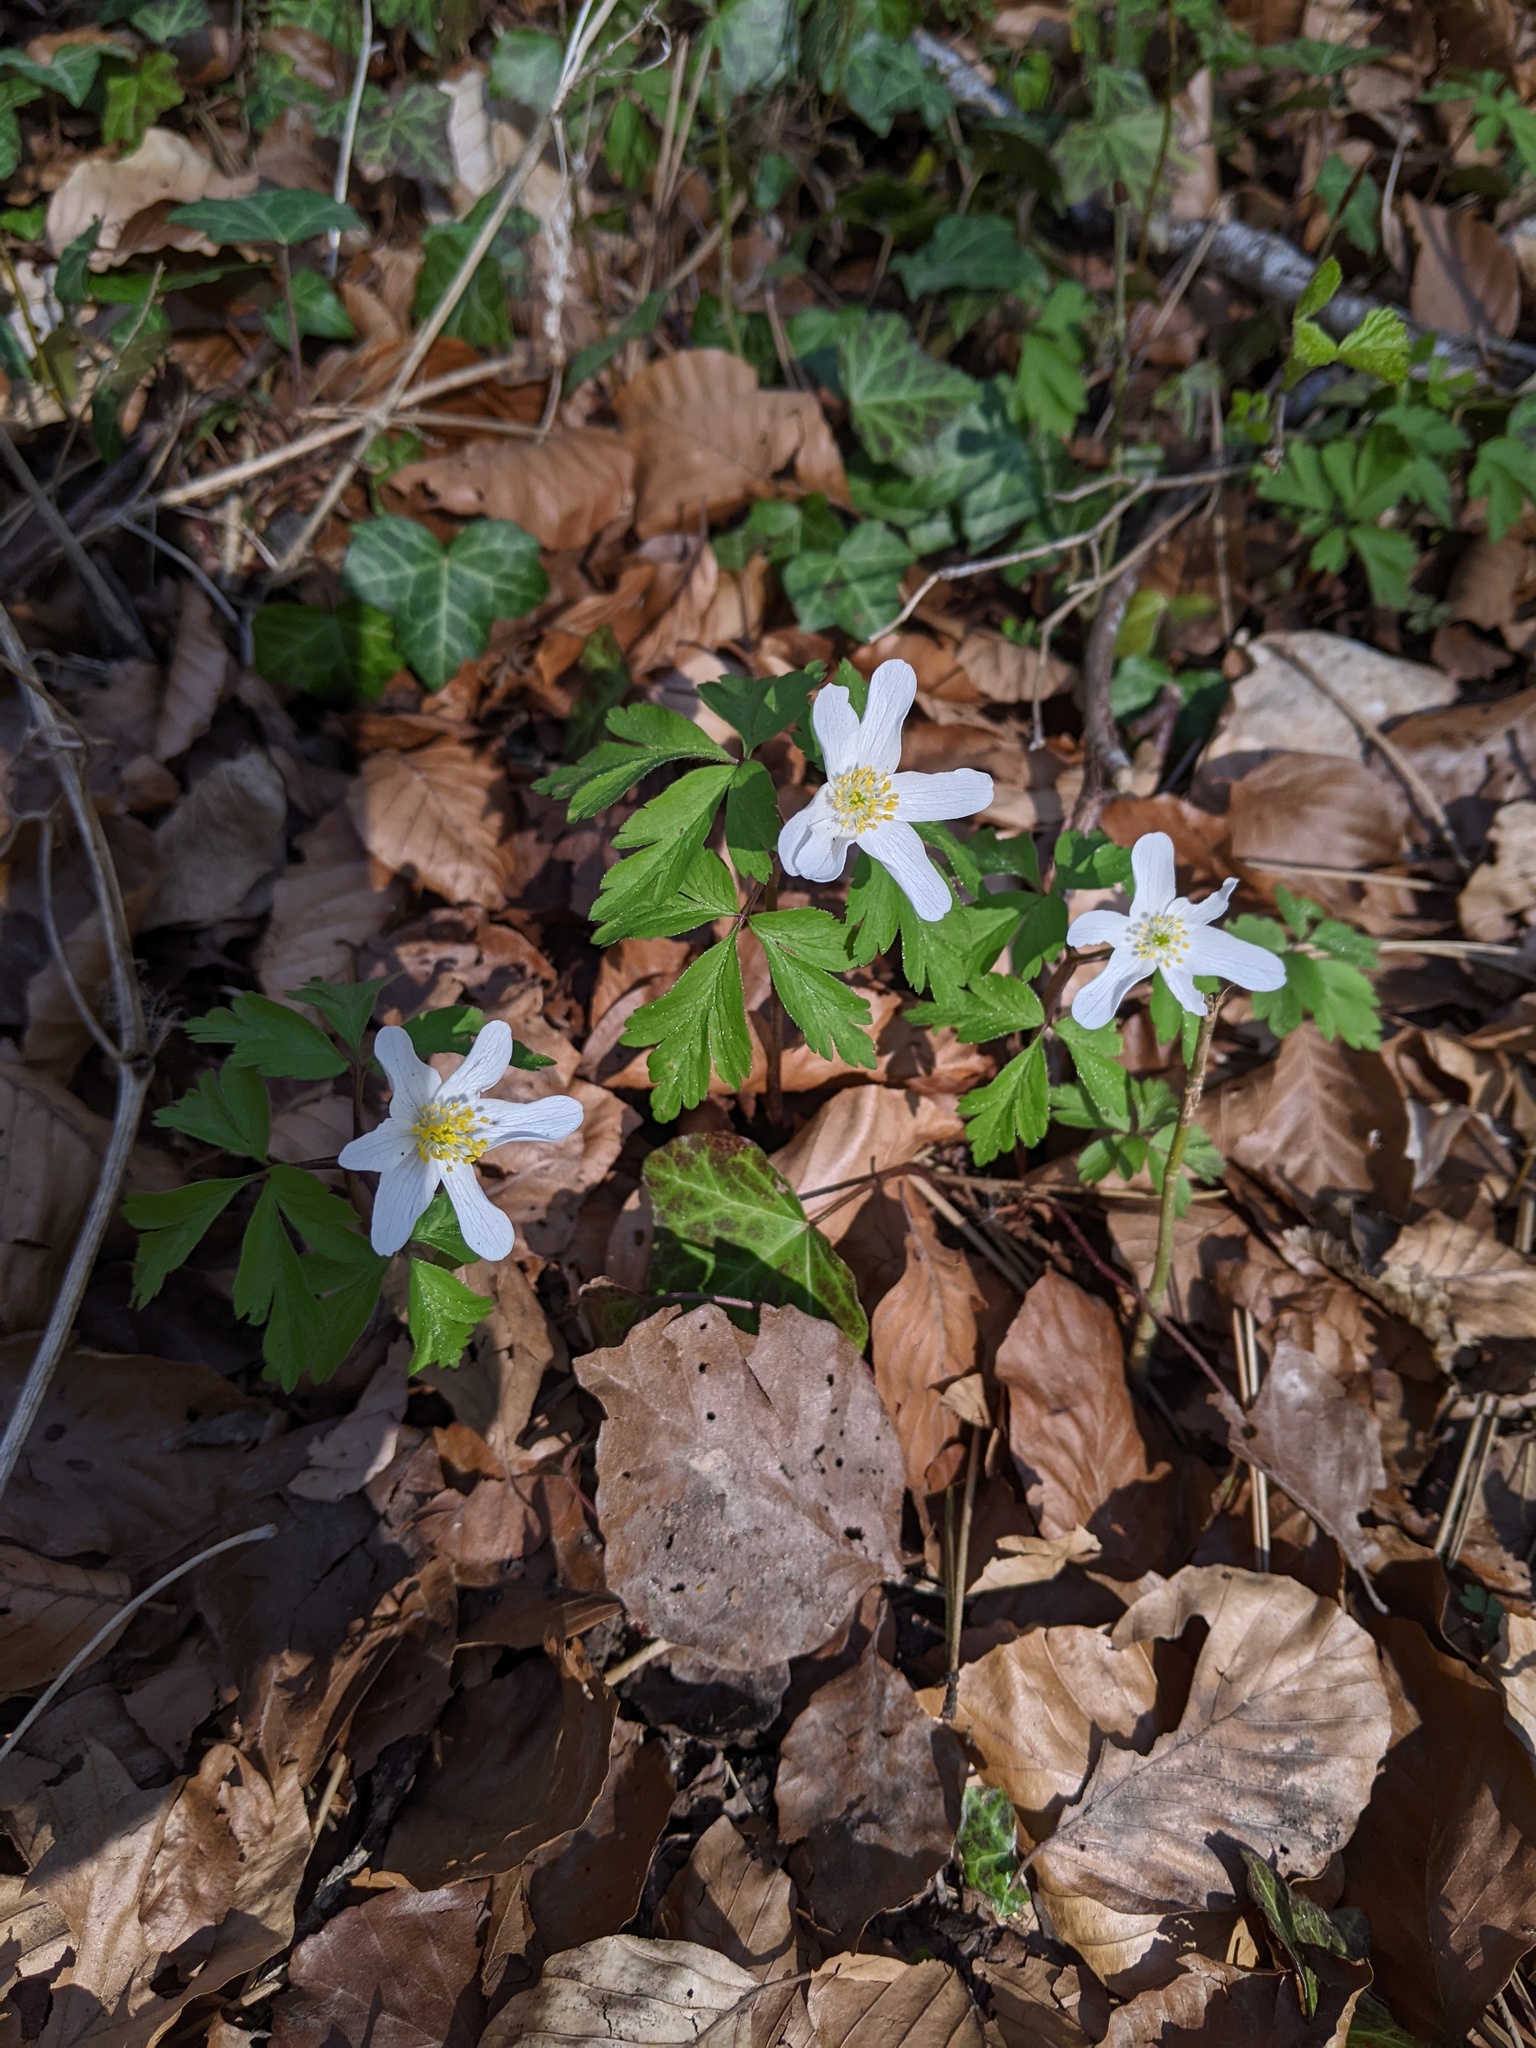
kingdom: Plantae
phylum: Tracheophyta
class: Magnoliopsida
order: Ranunculales
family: Ranunculaceae
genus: Anemone
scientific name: Anemone nemorosa
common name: Wood anemone
